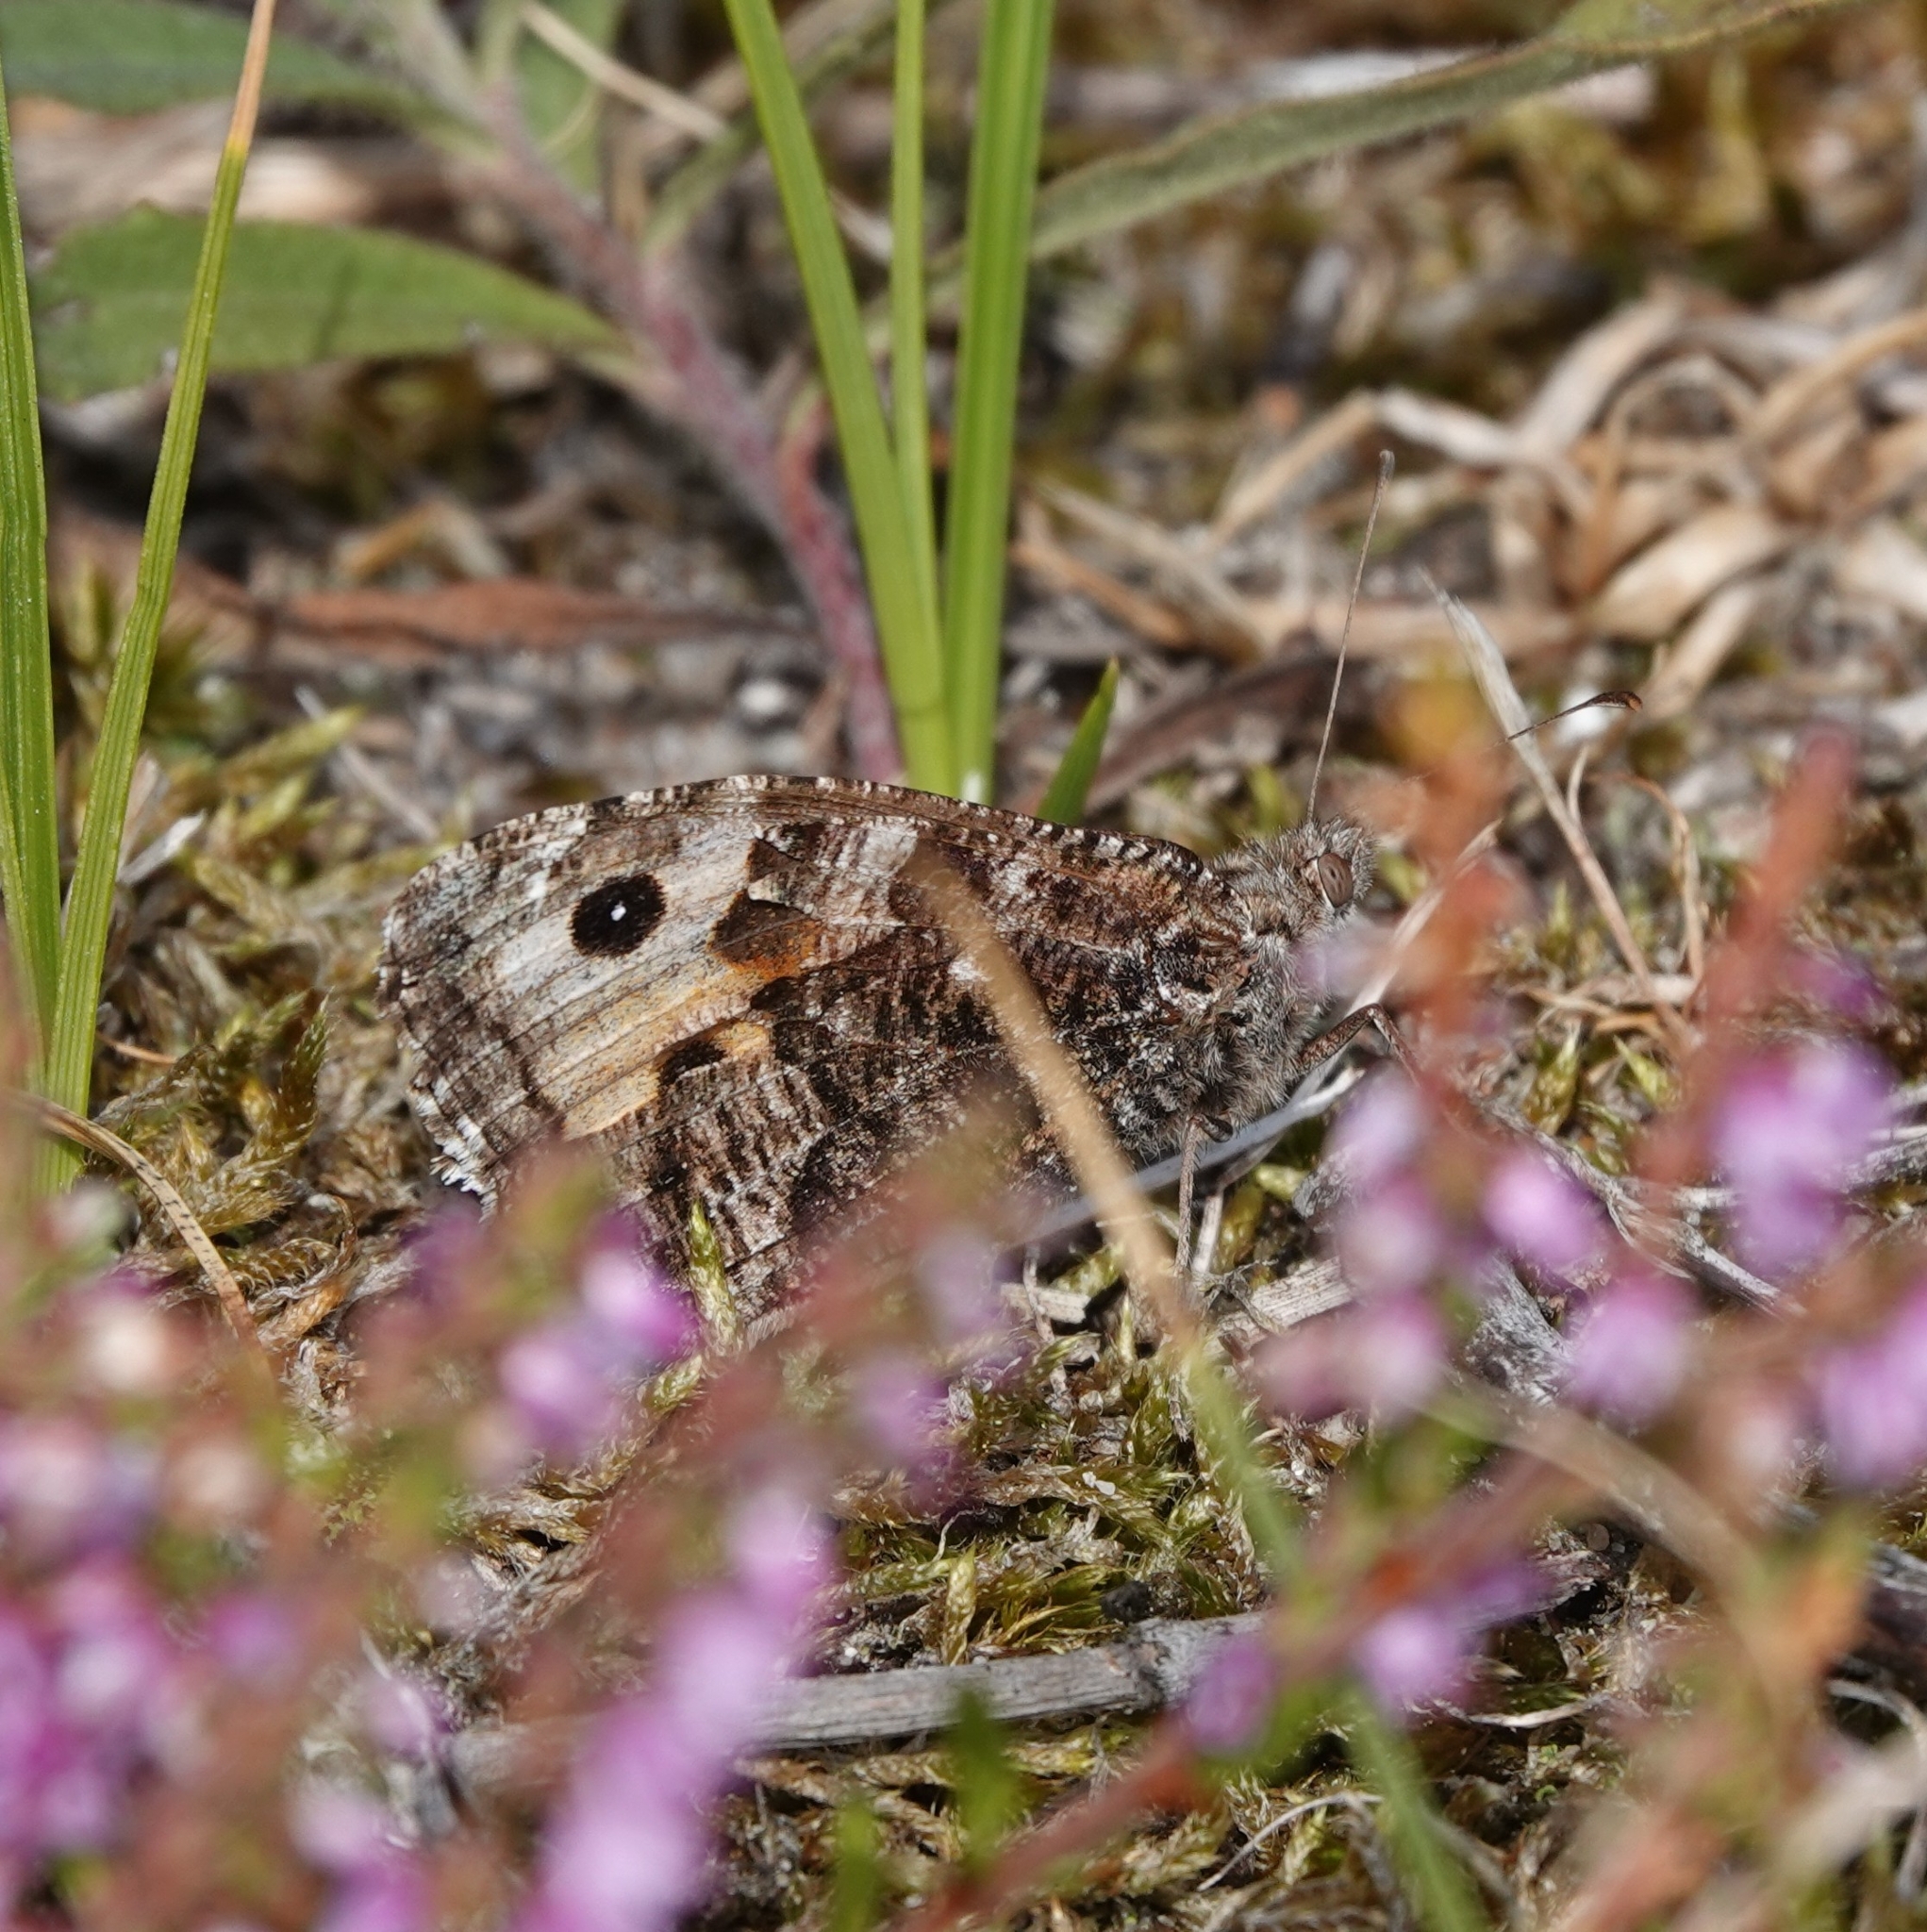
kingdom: Animalia
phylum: Arthropoda
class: Insecta
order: Lepidoptera
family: Nymphalidae
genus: Hipparchia
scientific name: Hipparchia semele
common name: Grayling
